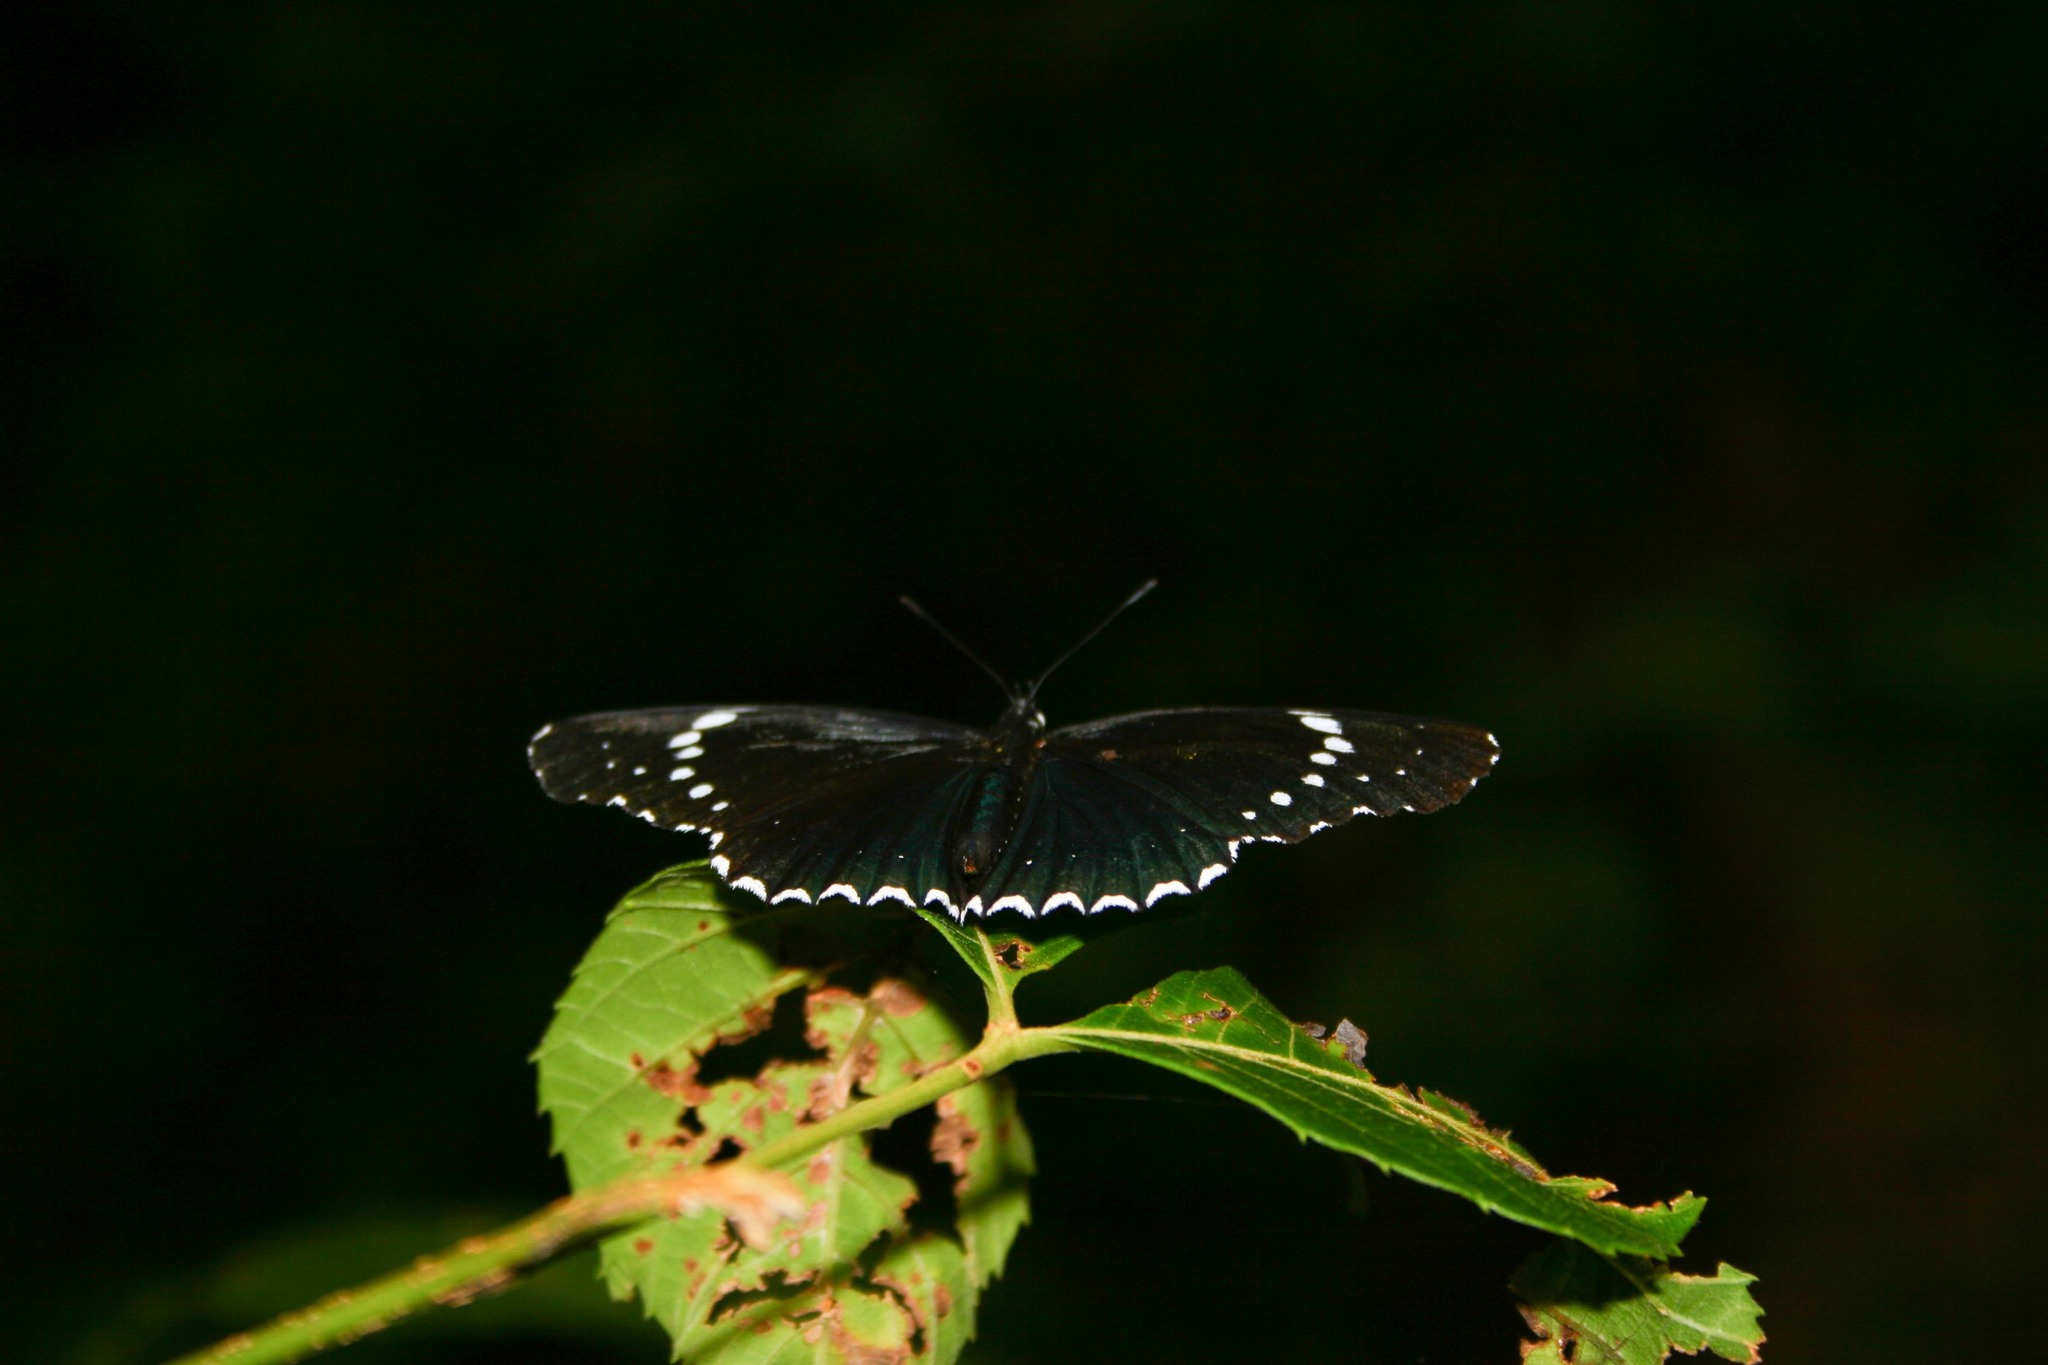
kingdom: Animalia
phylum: Arthropoda
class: Insecta
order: Lepidoptera
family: Nymphalidae
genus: Chlosyne
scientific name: Chlosyne hippodrome
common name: Simple patch
